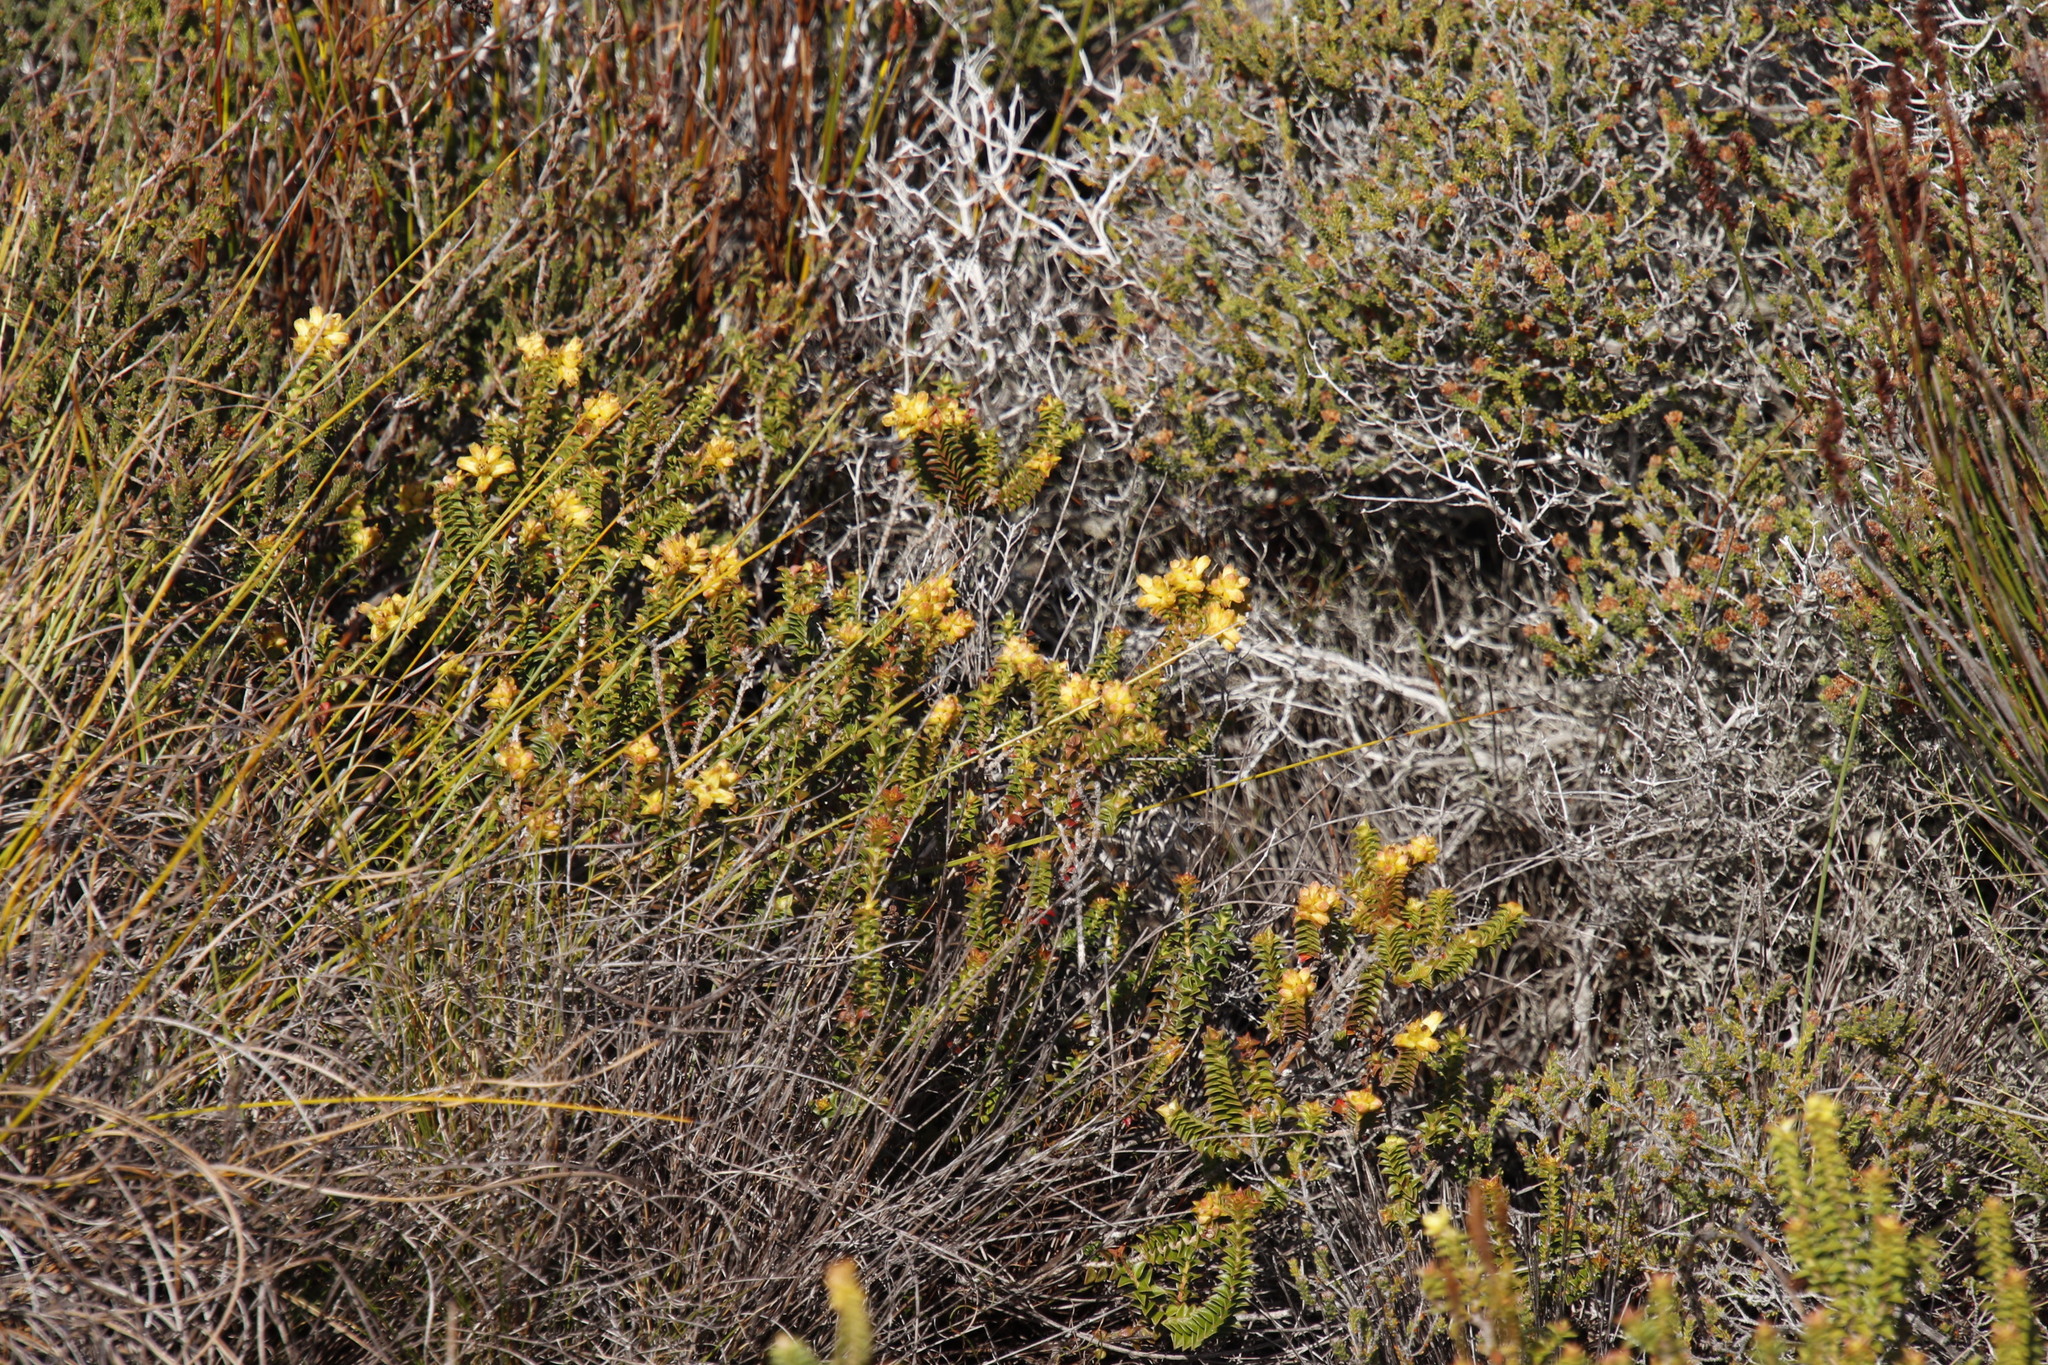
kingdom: Plantae
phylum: Tracheophyta
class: Magnoliopsida
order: Myrtales
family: Penaeaceae
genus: Penaea
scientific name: Penaea mucronata
